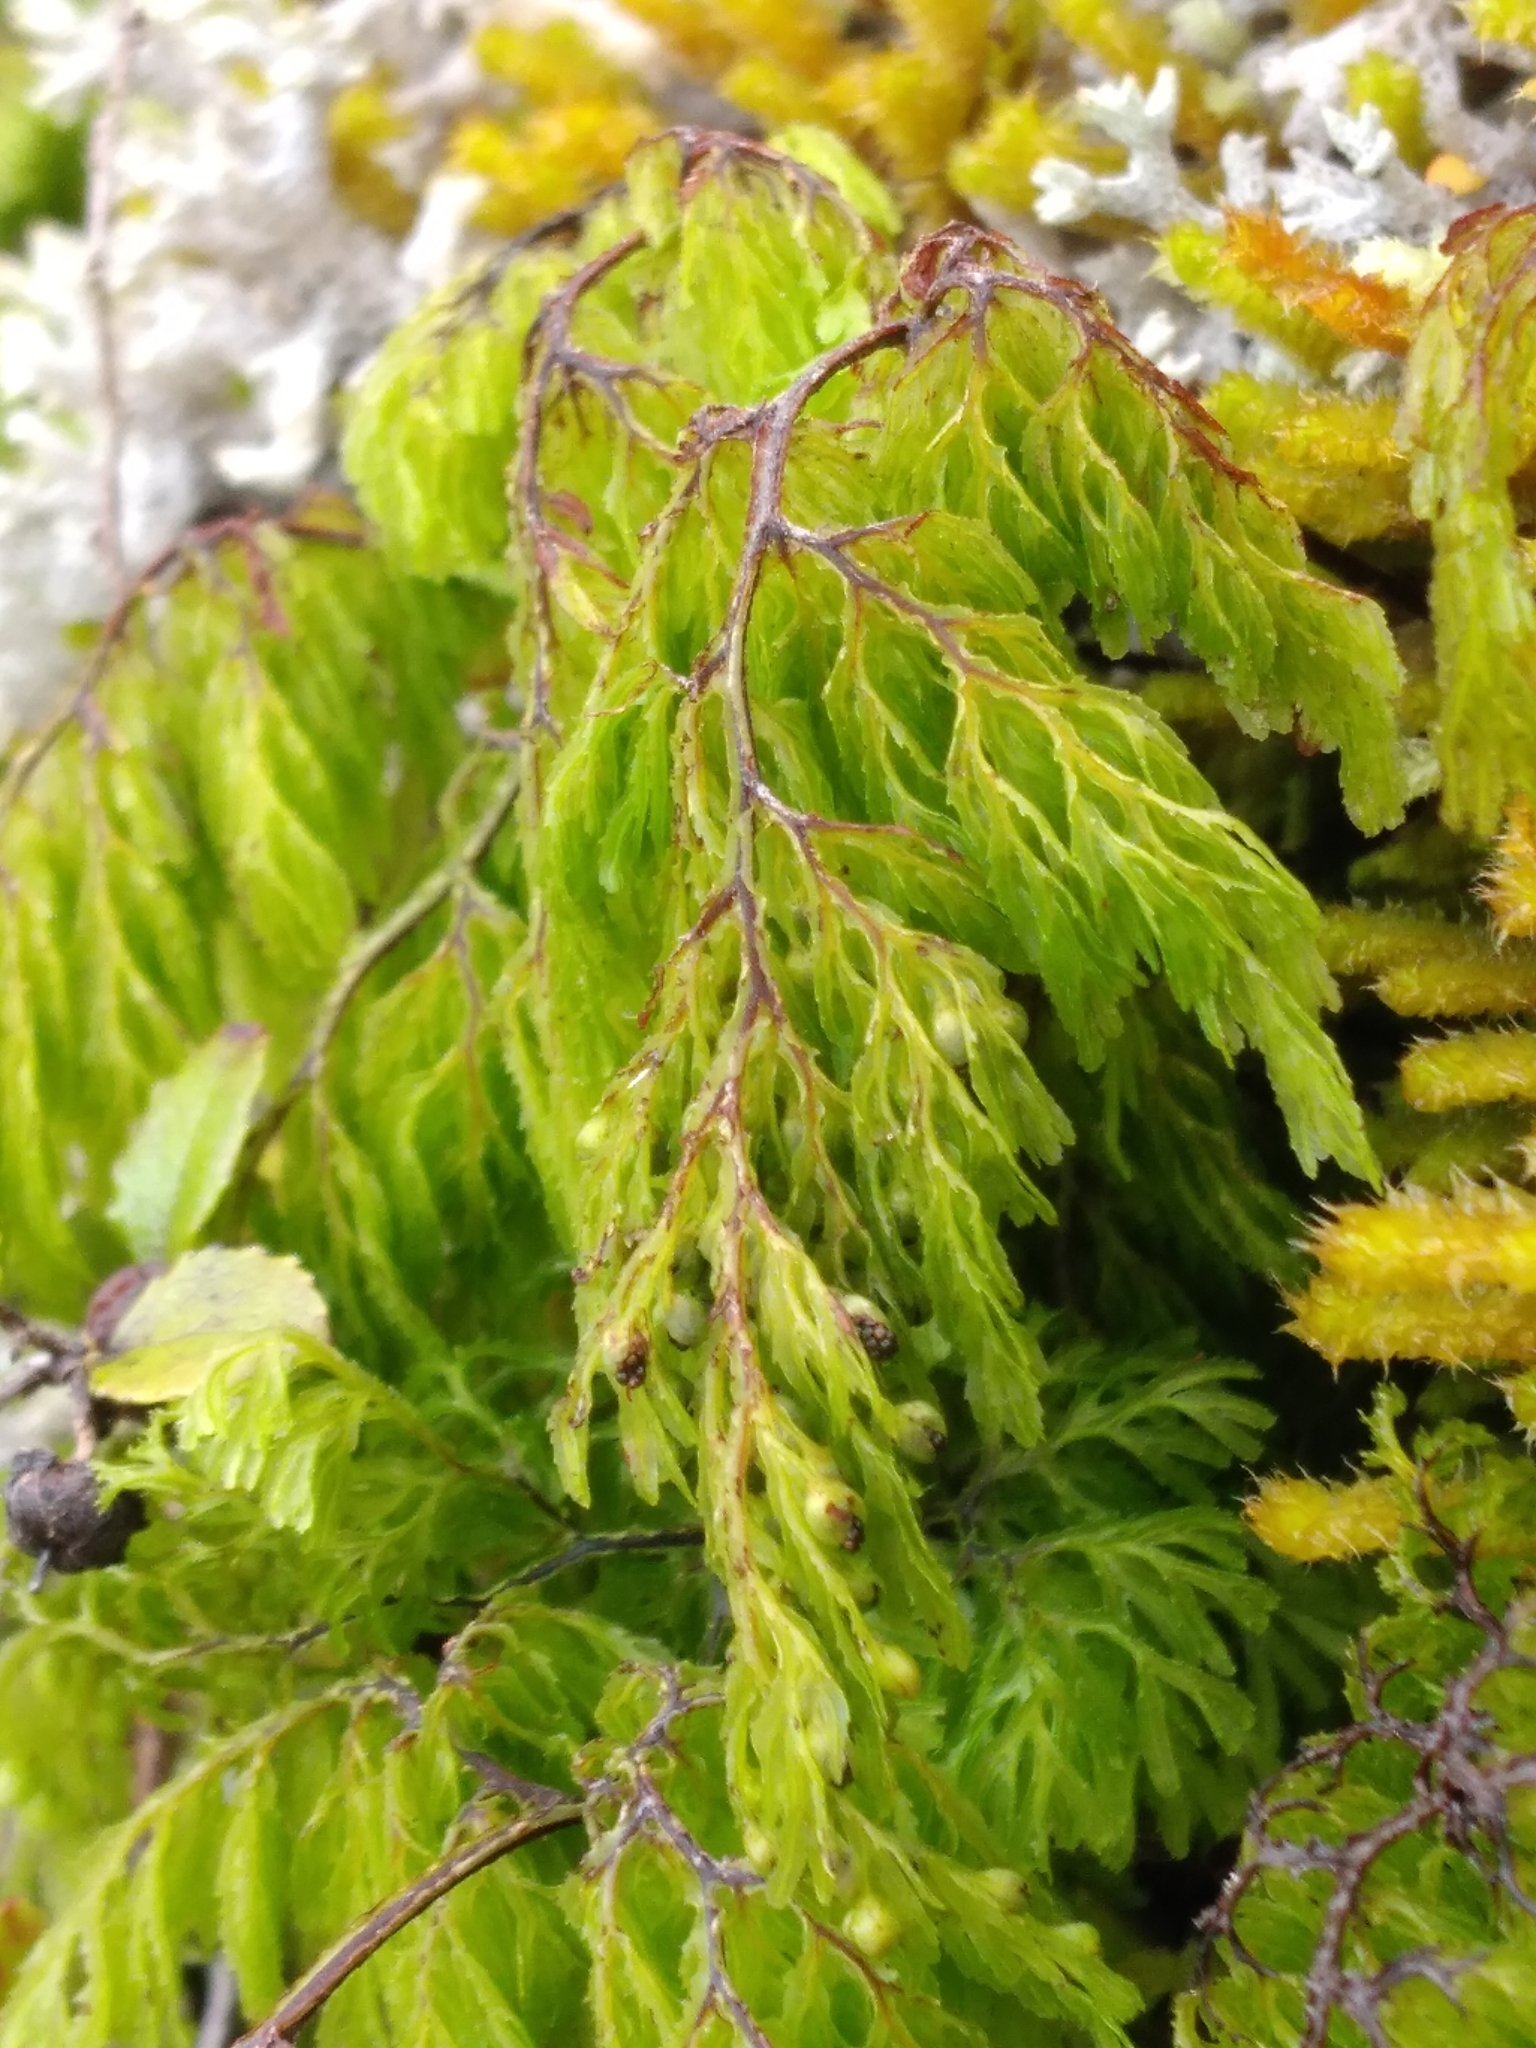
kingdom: Plantae
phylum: Tracheophyta
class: Polypodiopsida
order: Hymenophyllales
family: Hymenophyllaceae
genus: Hymenophyllum
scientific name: Hymenophyllum bivalve
